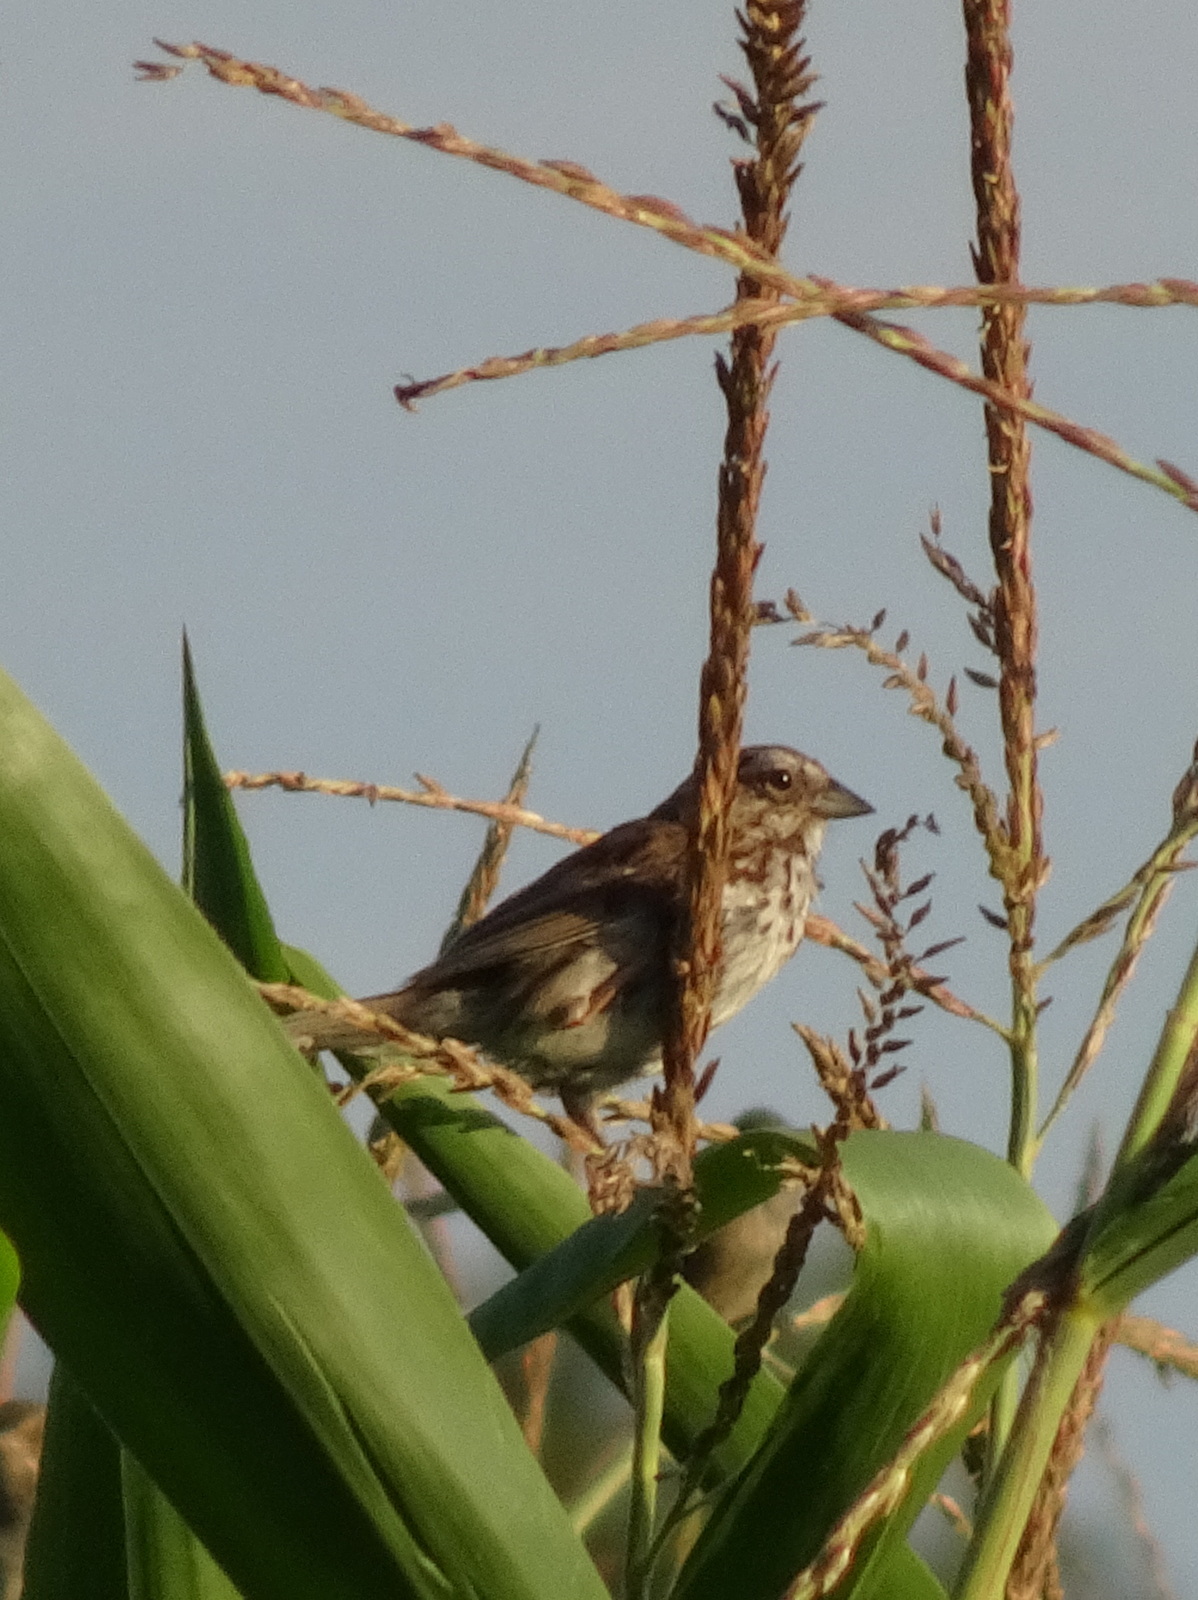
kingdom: Animalia
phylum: Chordata
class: Aves
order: Passeriformes
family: Passerellidae
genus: Melospiza
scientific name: Melospiza melodia
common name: Song sparrow
